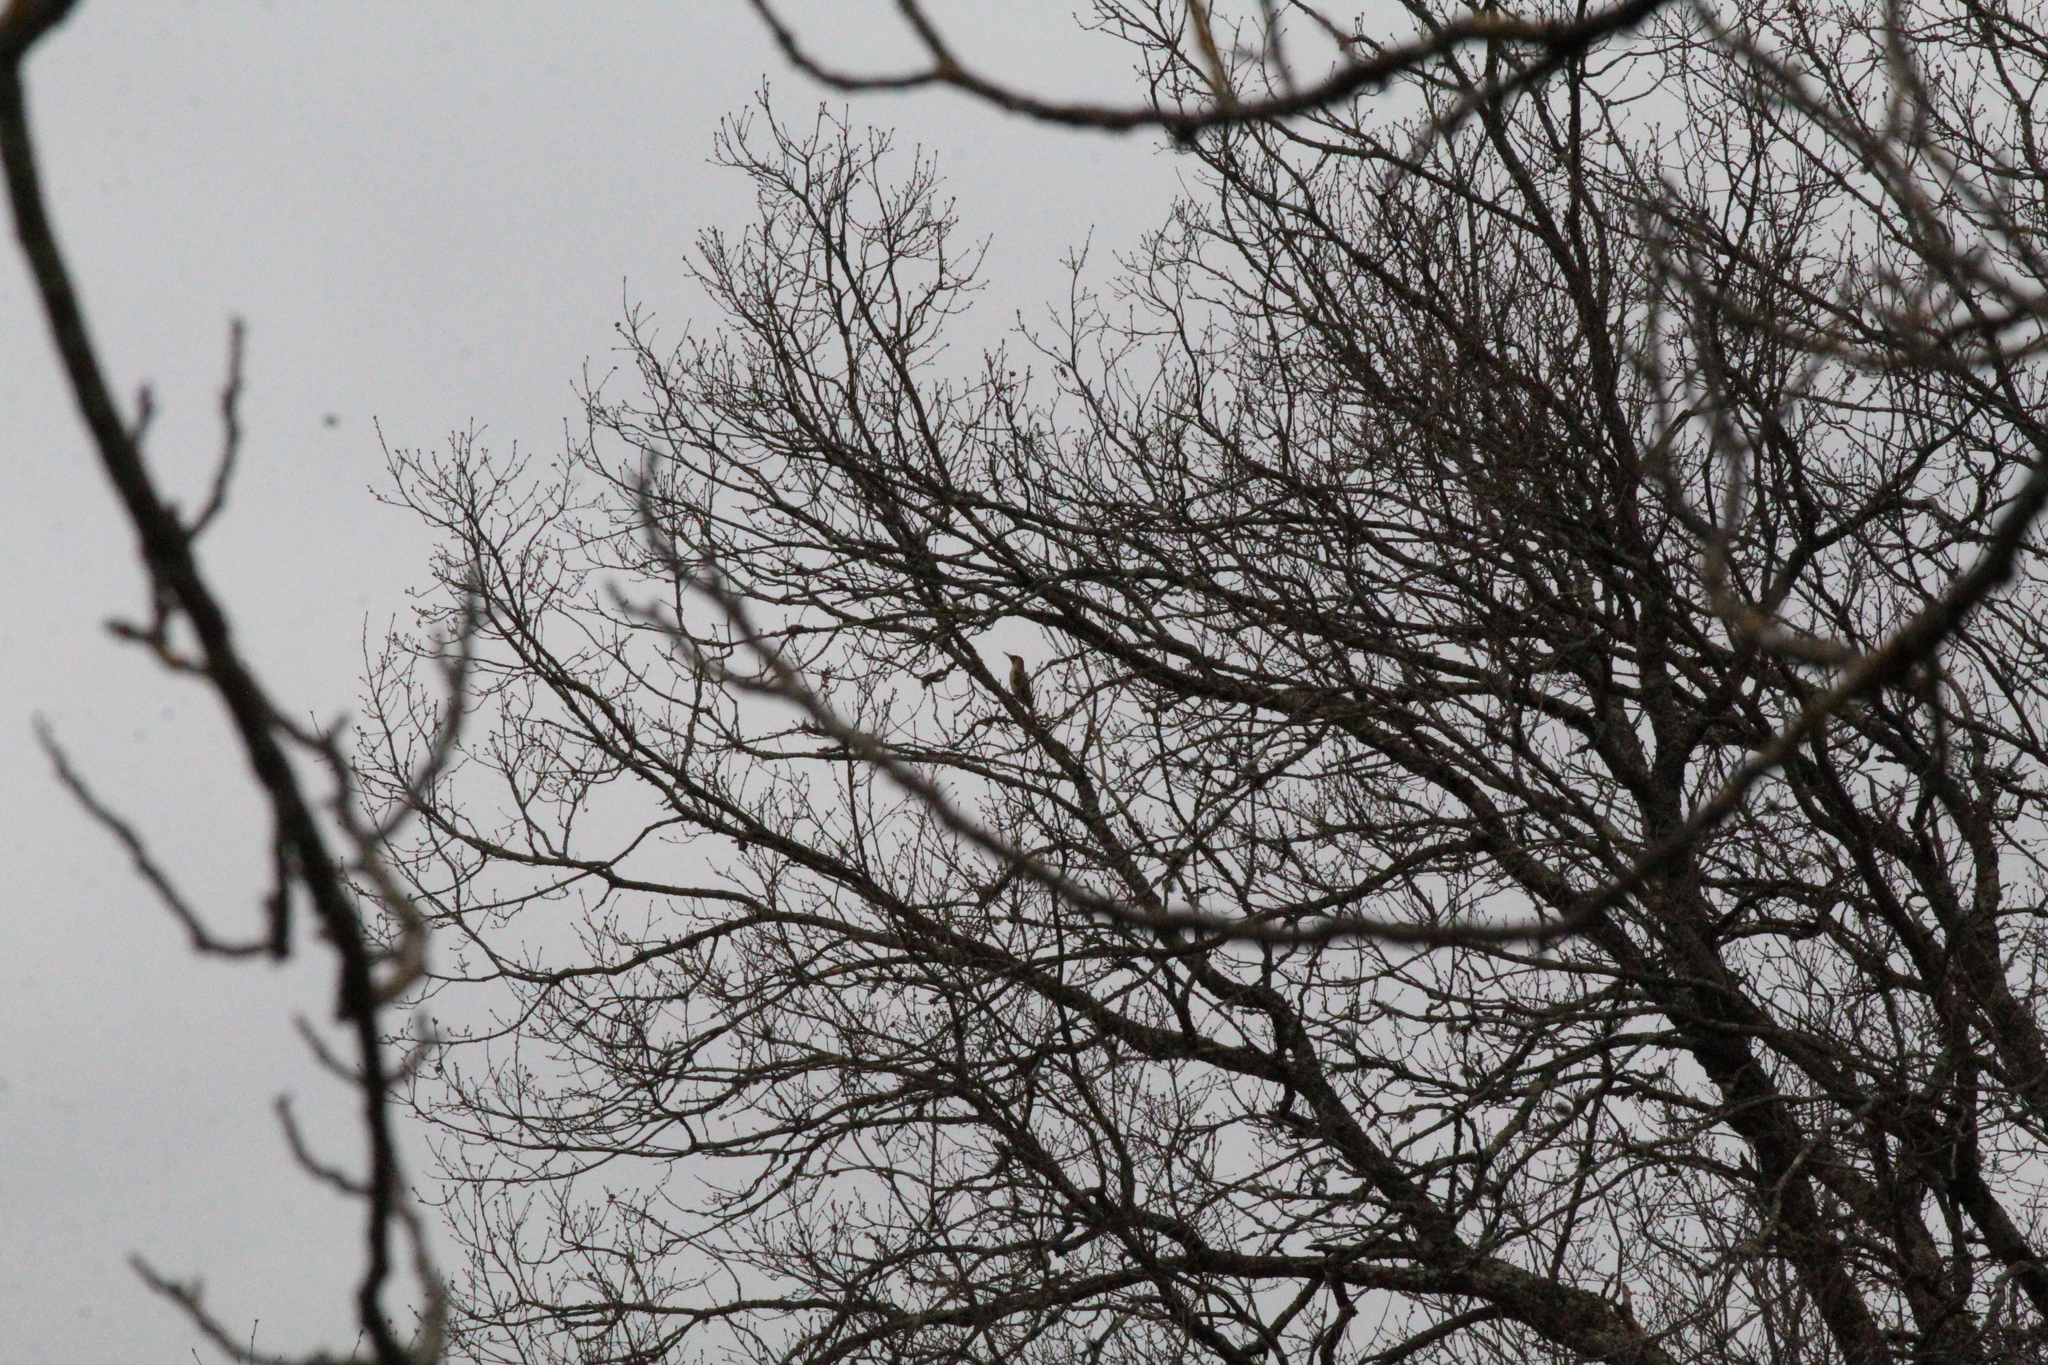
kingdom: Animalia
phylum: Chordata
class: Aves
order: Piciformes
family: Picidae
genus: Picus
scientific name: Picus viridis
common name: European green woodpecker
